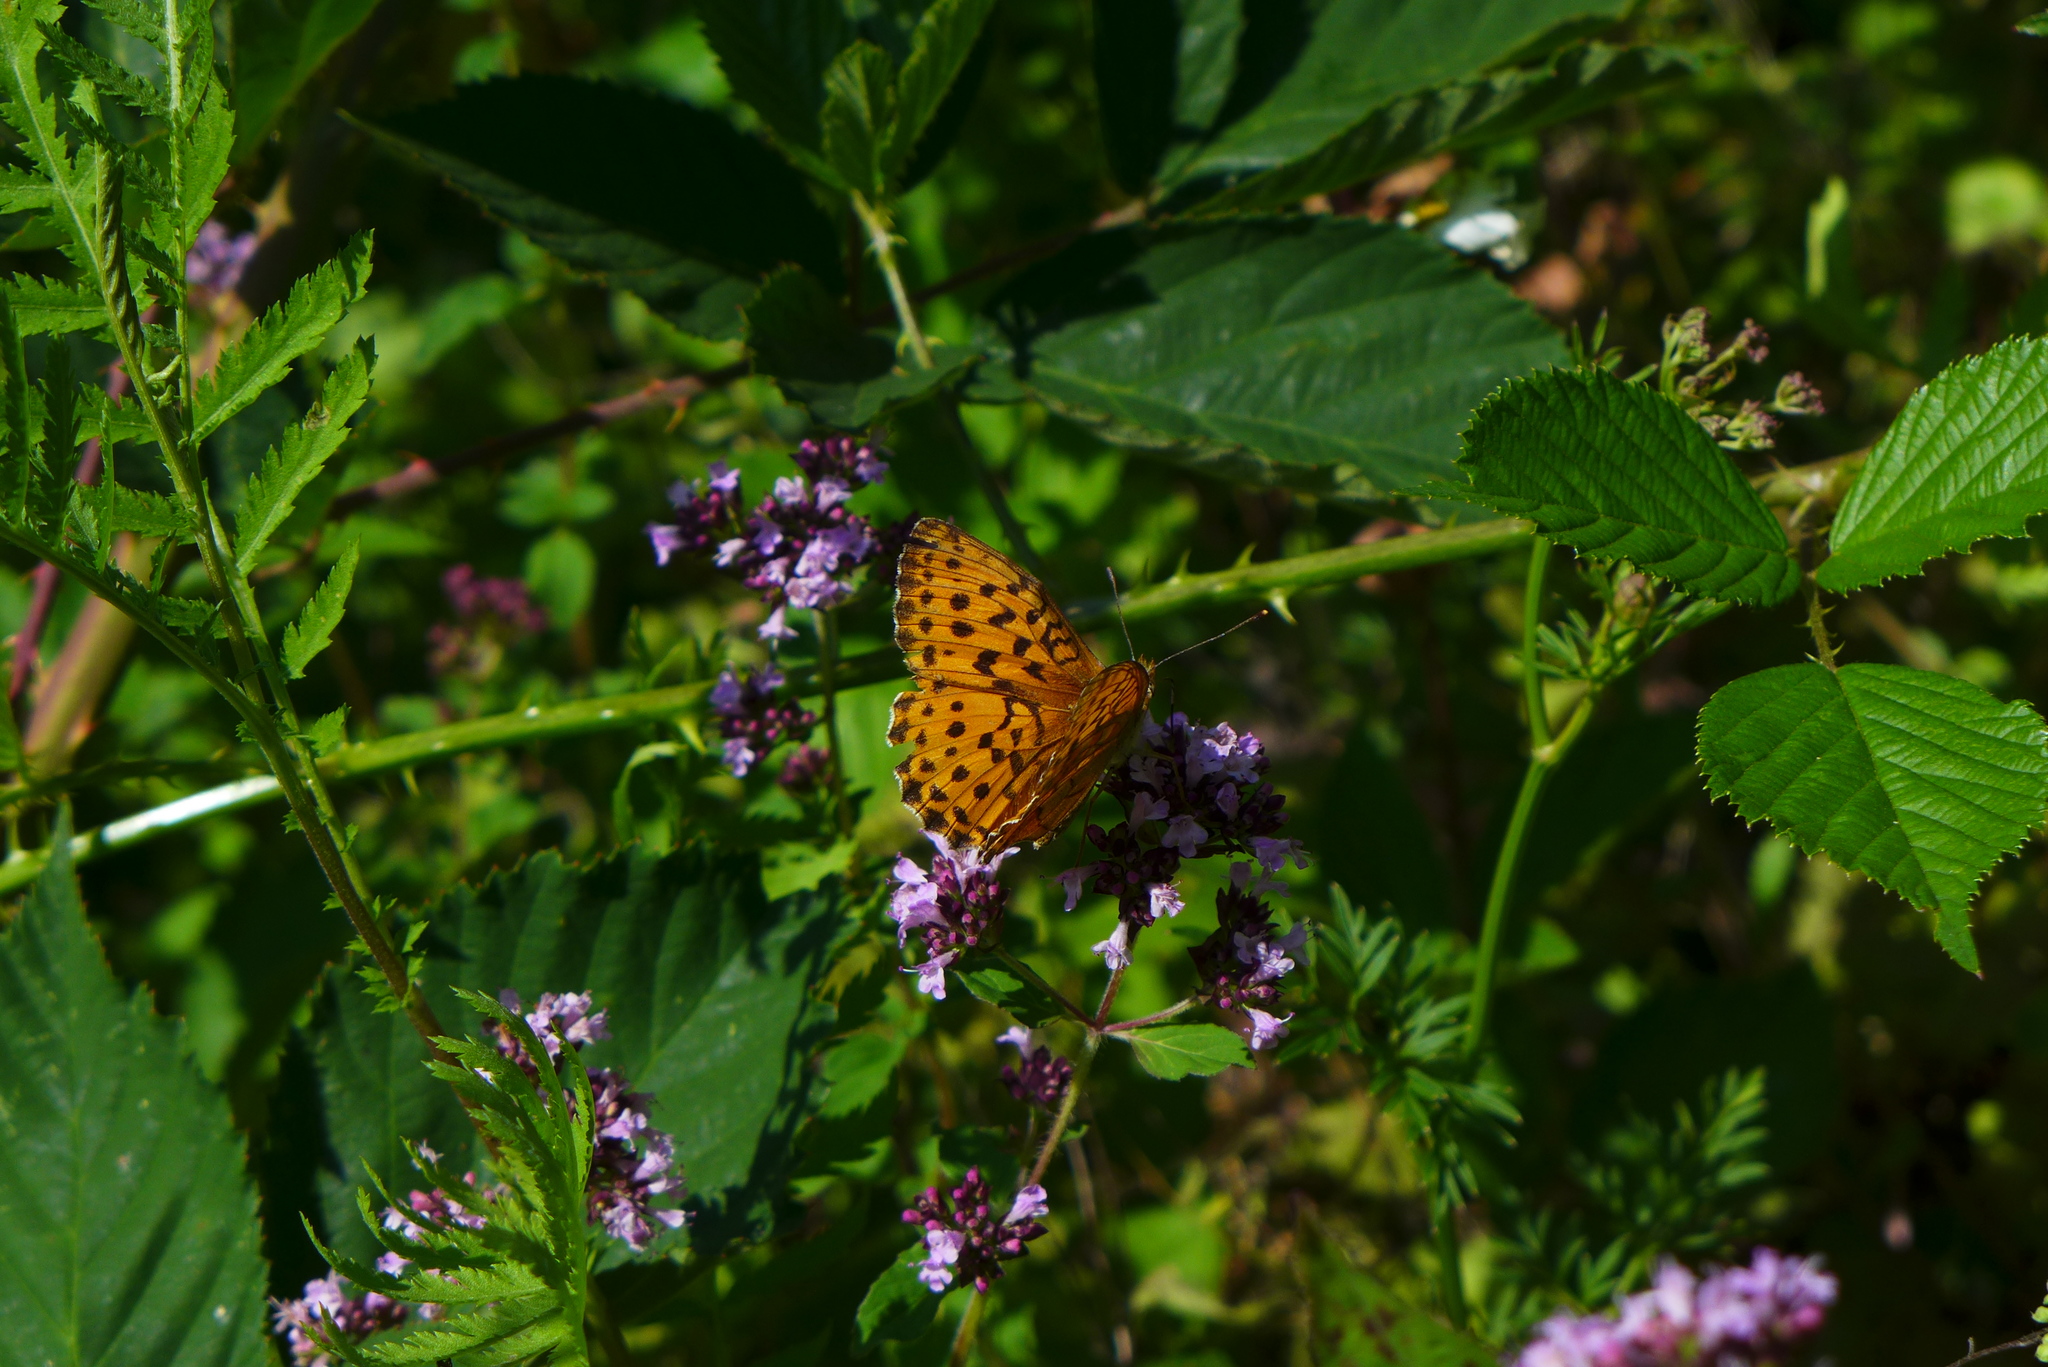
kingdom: Animalia
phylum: Arthropoda
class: Insecta
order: Lepidoptera
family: Nymphalidae
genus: Brenthis
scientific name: Brenthis daphne
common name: Marbled fritillary
